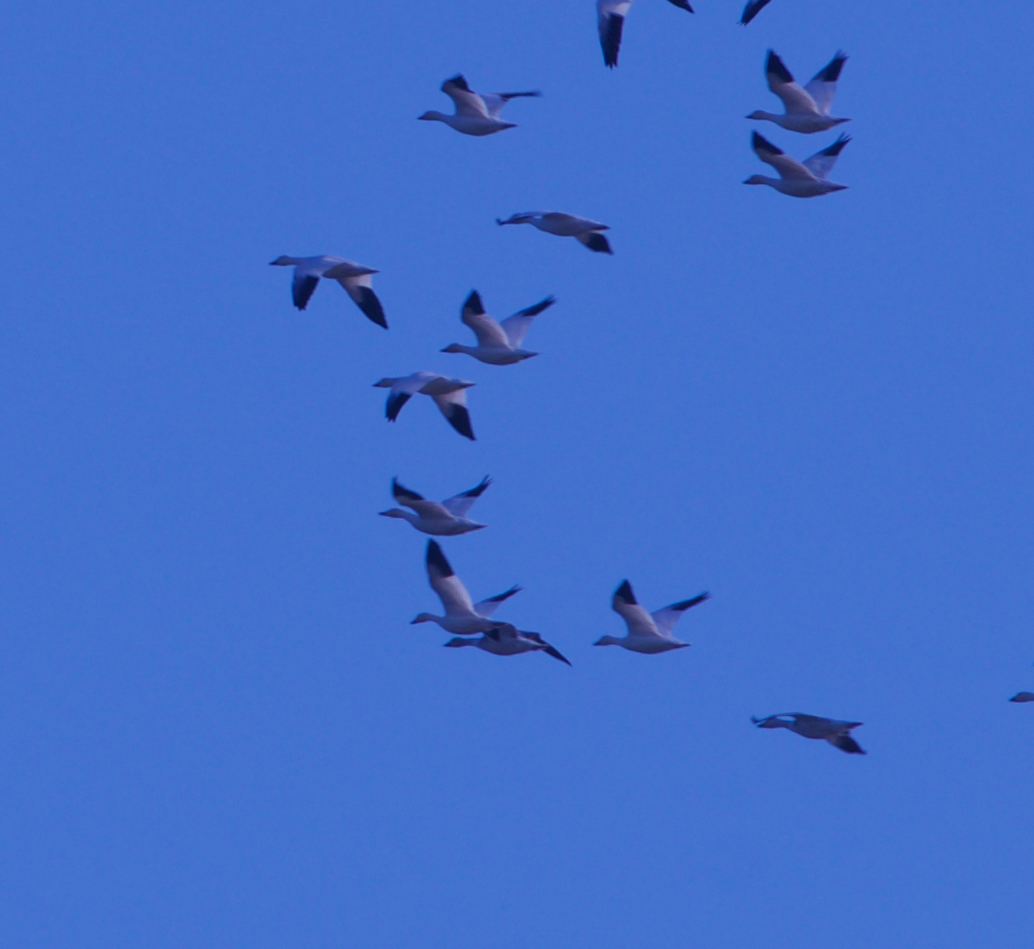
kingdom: Animalia
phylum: Chordata
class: Aves
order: Anseriformes
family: Anatidae
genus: Anser
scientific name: Anser caerulescens
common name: Snow goose
